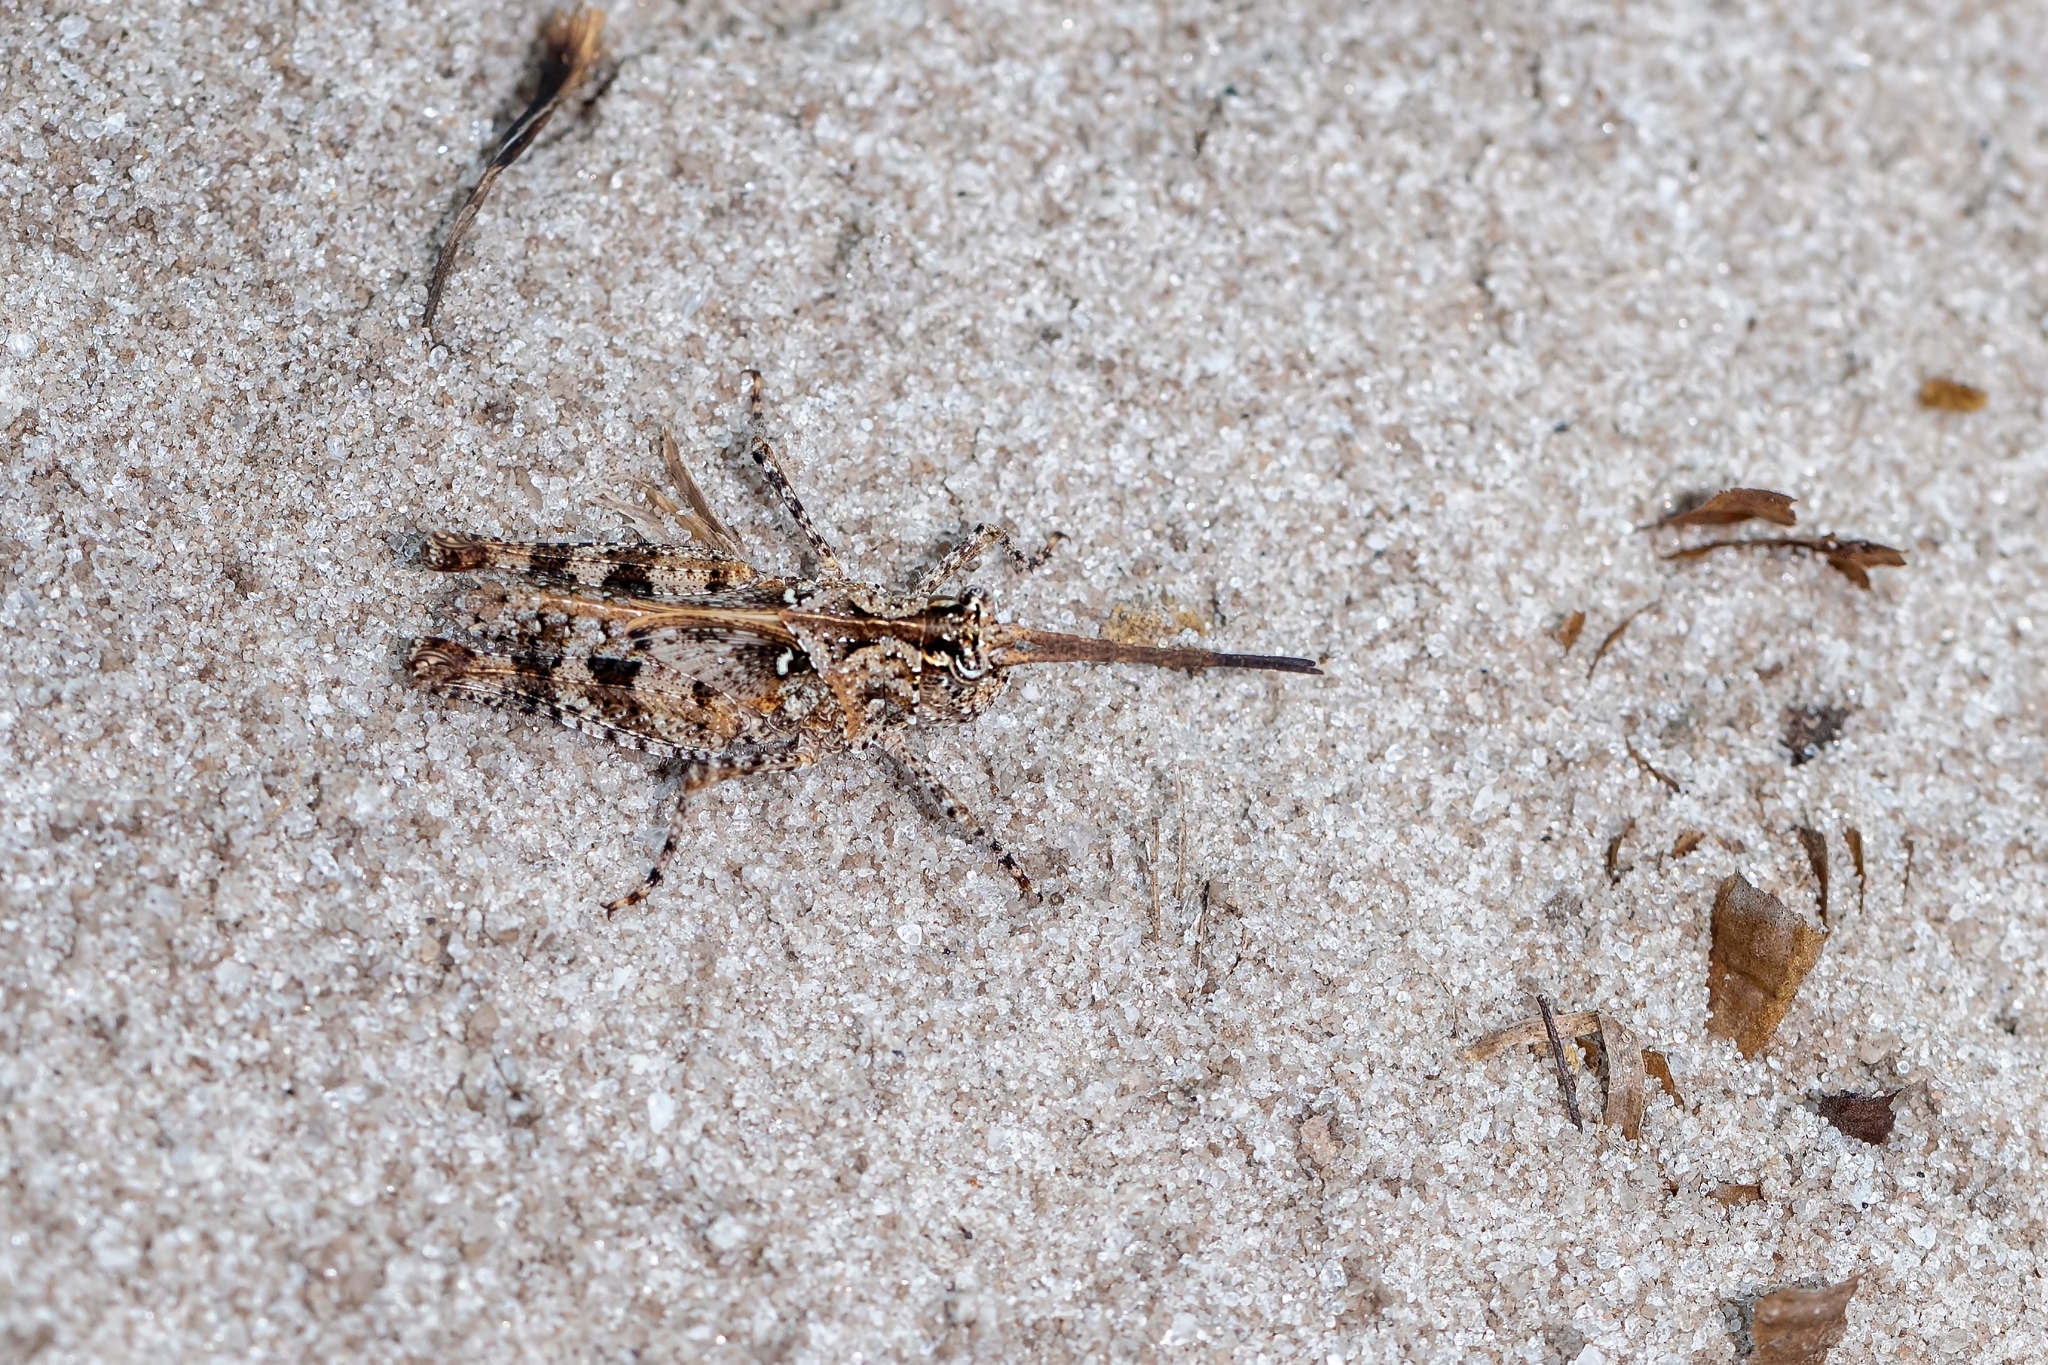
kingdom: Animalia
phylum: Arthropoda
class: Insecta
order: Orthoptera
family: Acrididae
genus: Psinidia
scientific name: Psinidia fenestralis
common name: Long-horned locust
